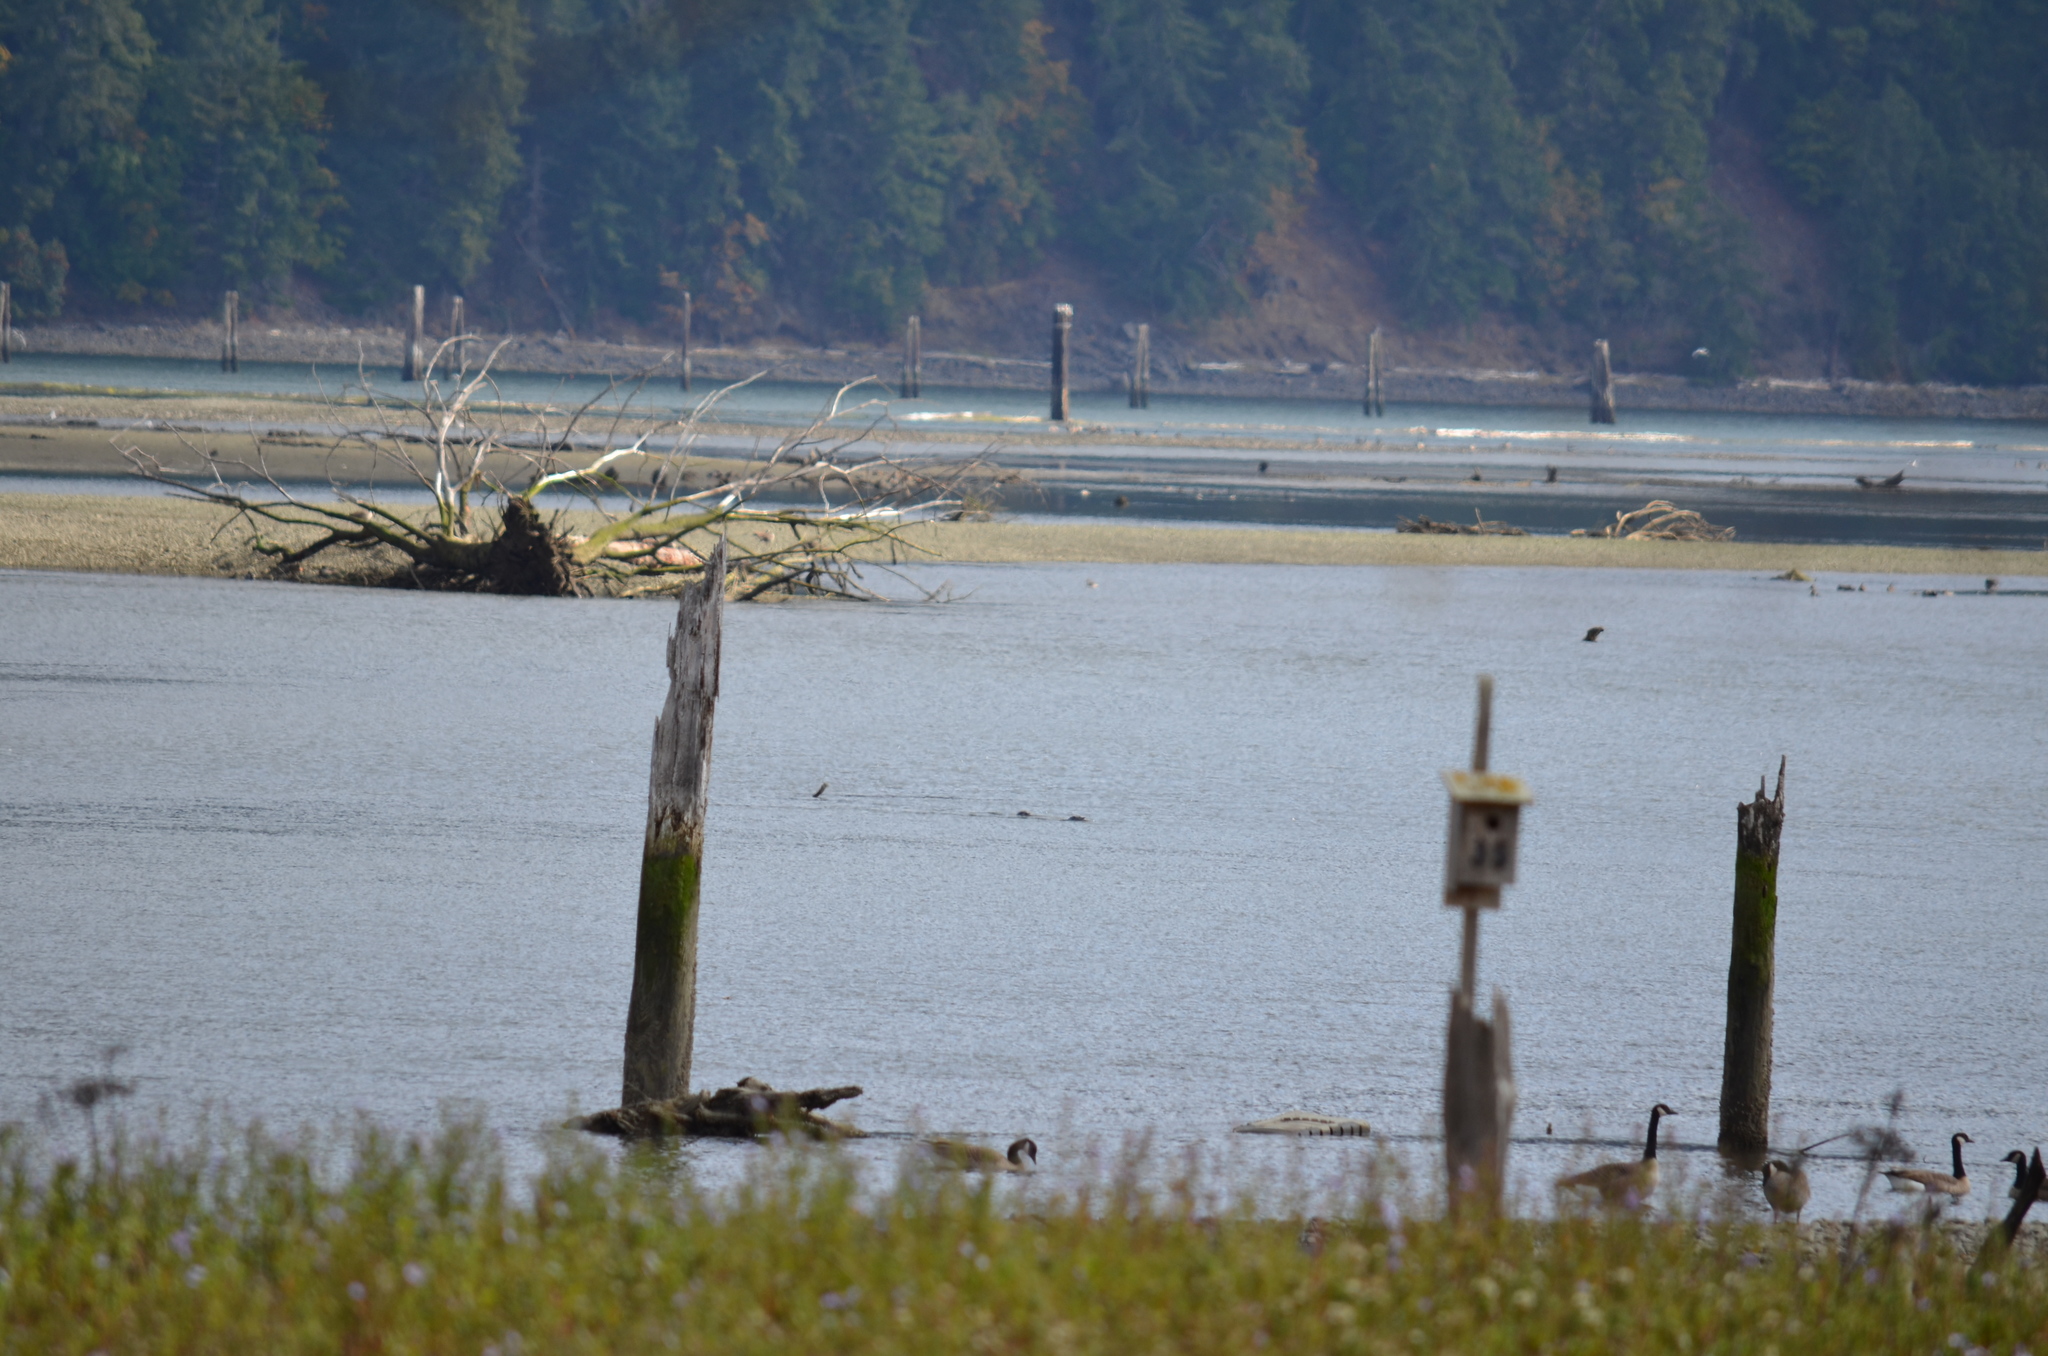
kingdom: Animalia
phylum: Chordata
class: Aves
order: Anseriformes
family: Anatidae
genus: Branta
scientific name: Branta canadensis
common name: Canada goose
